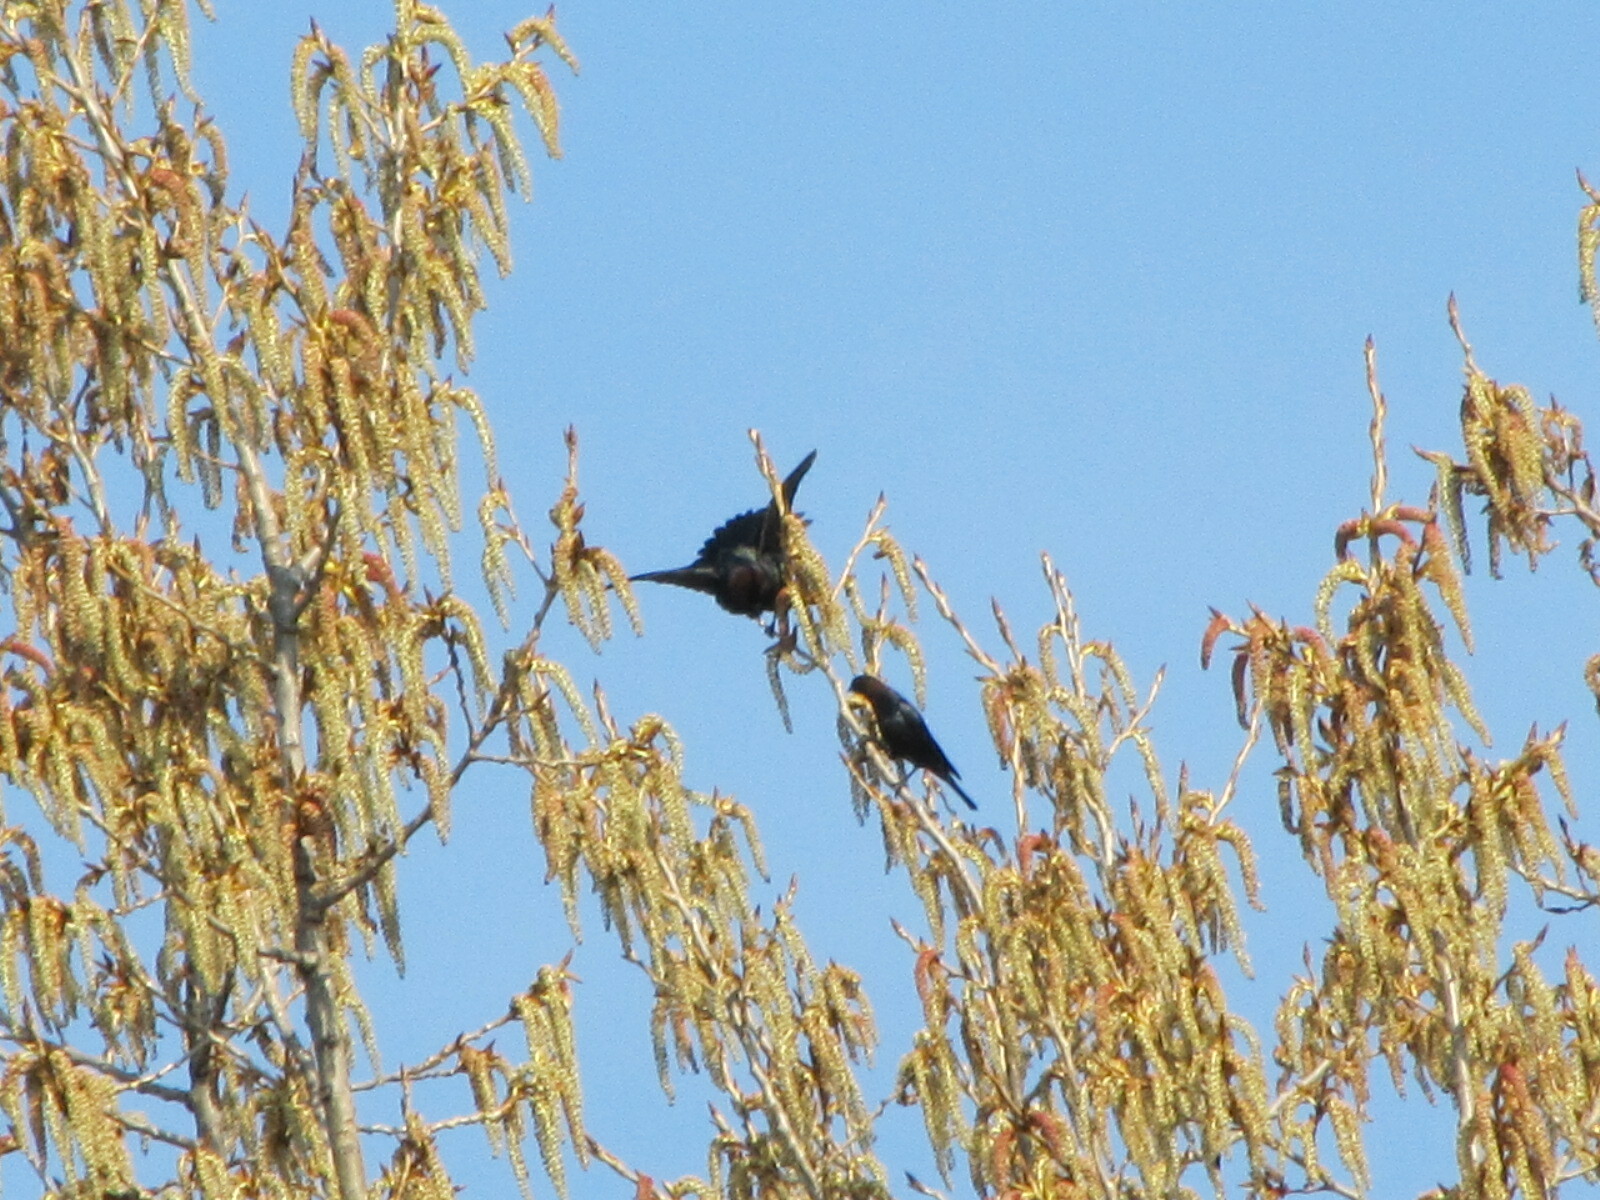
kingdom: Animalia
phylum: Chordata
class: Aves
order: Passeriformes
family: Icteridae
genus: Molothrus
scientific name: Molothrus ater
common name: Brown-headed cowbird
